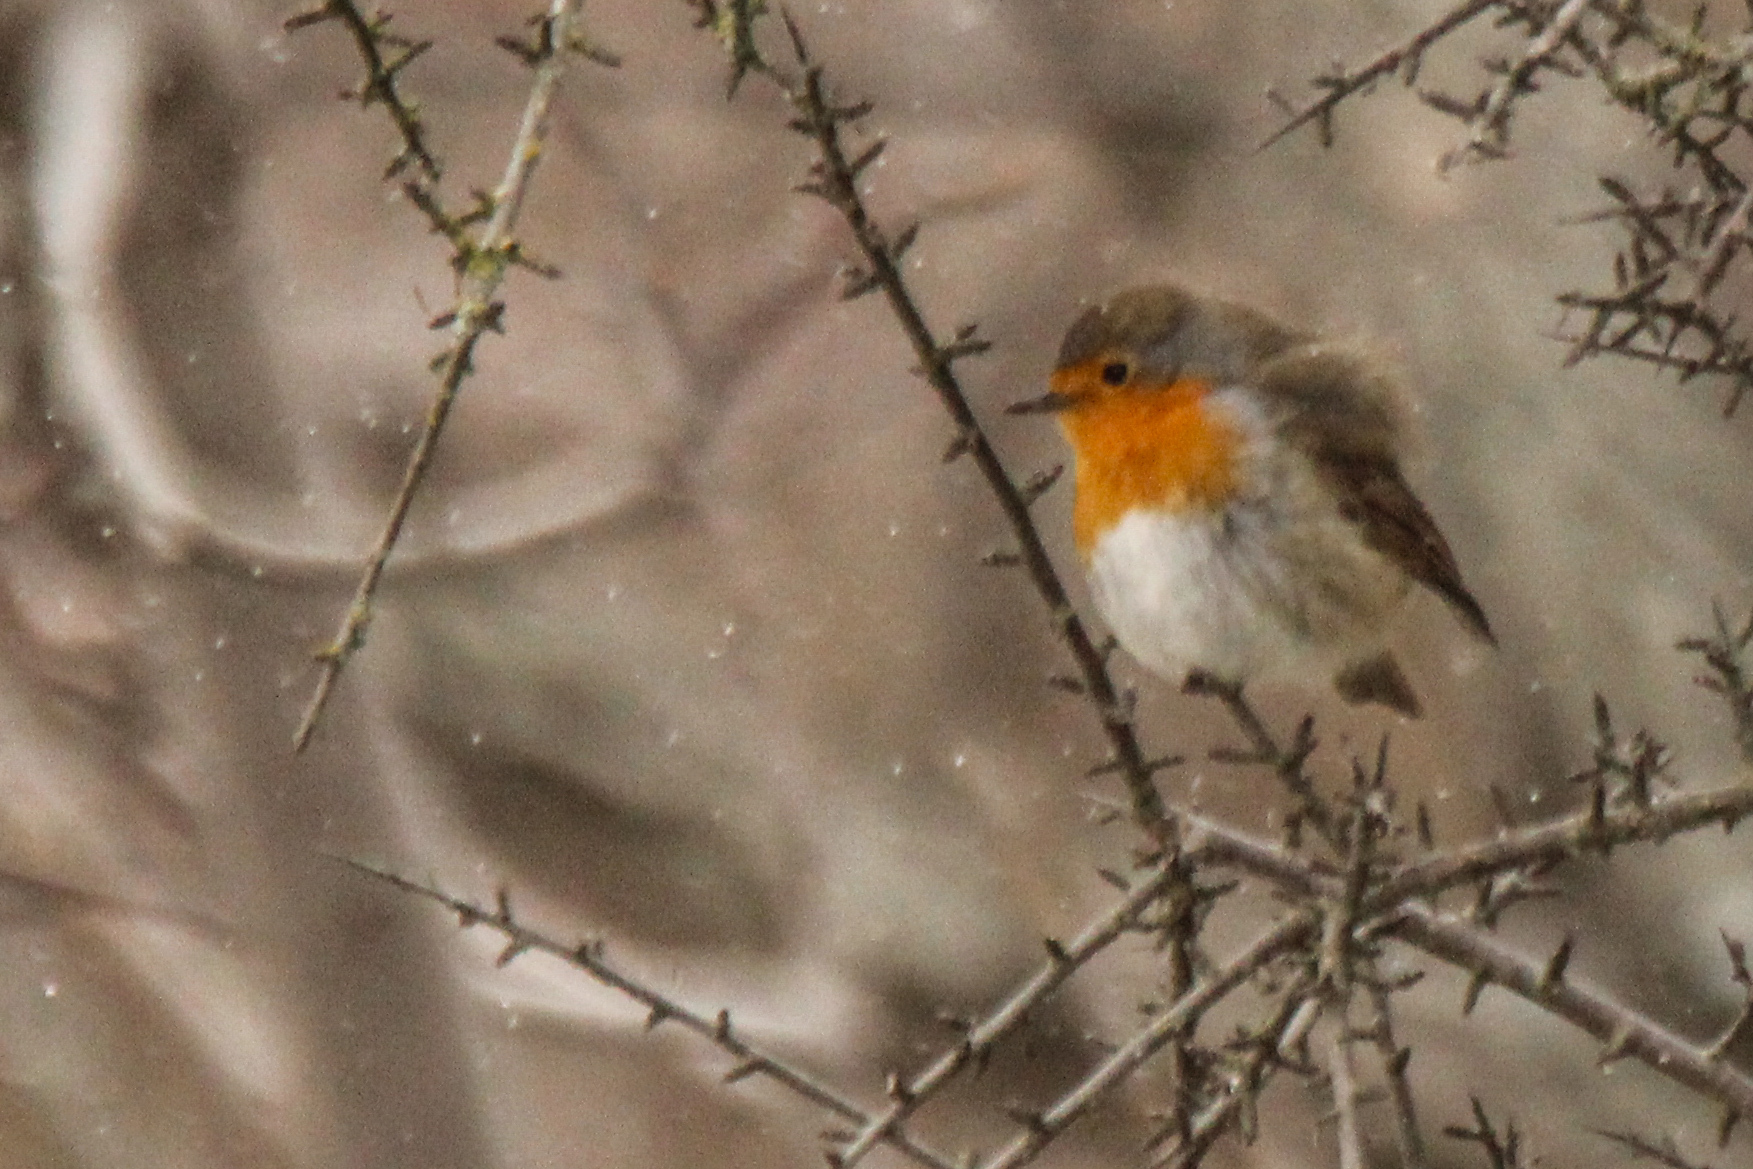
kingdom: Animalia
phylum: Chordata
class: Aves
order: Passeriformes
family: Muscicapidae
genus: Erithacus
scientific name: Erithacus rubecula
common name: European robin
